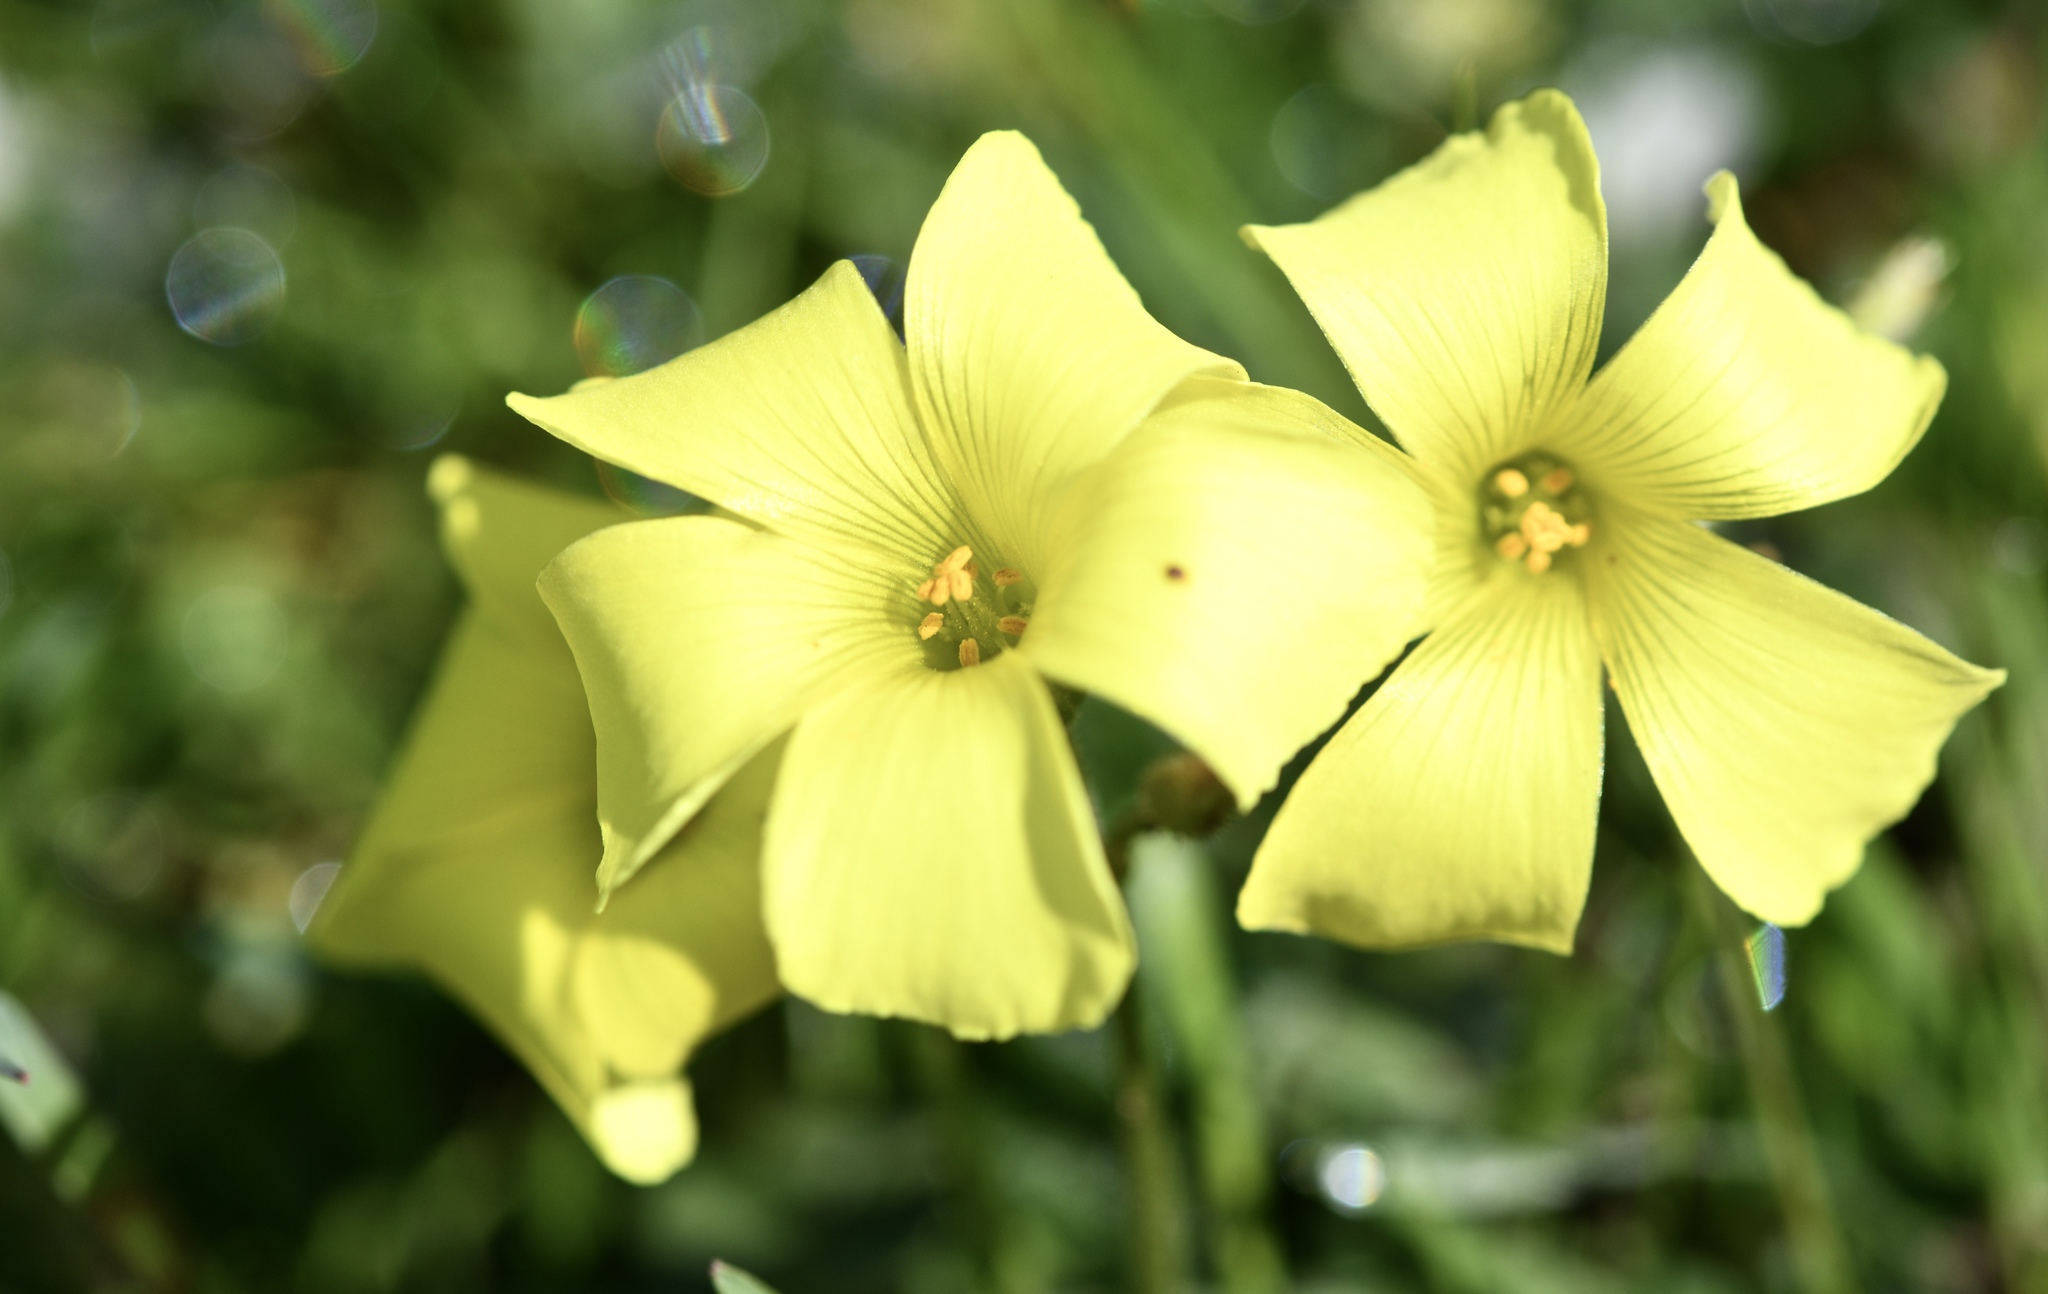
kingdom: Plantae
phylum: Tracheophyta
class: Magnoliopsida
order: Oxalidales
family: Oxalidaceae
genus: Oxalis
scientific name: Oxalis pes-caprae
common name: Bermuda-buttercup
